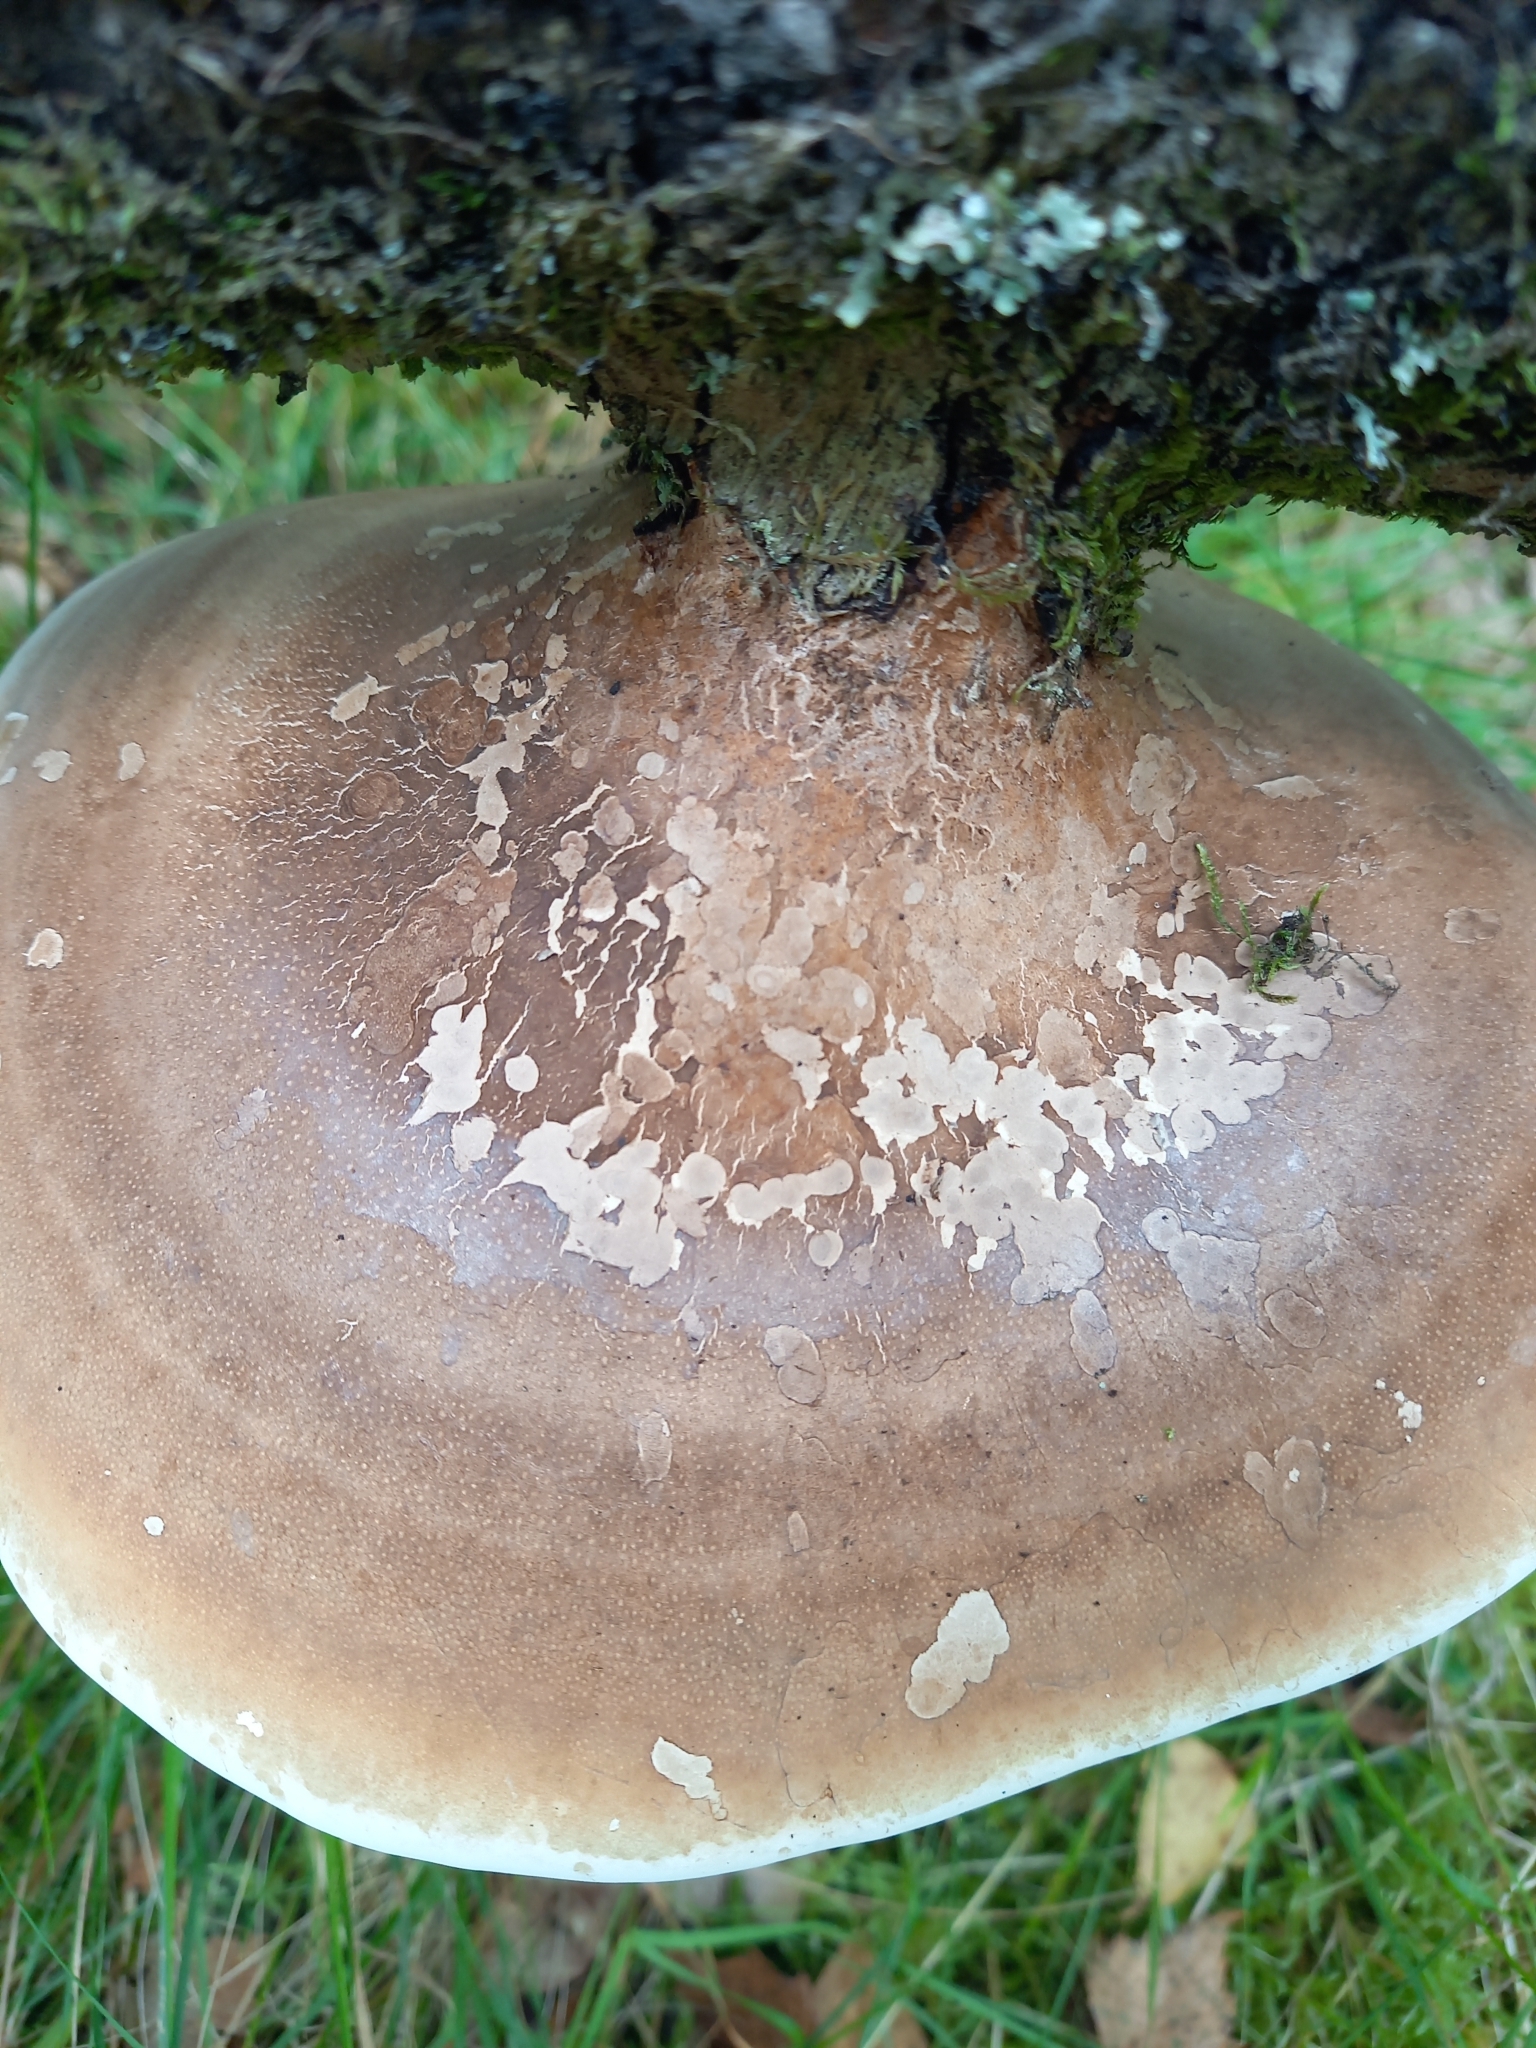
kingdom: Fungi
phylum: Basidiomycota
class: Agaricomycetes
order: Polyporales
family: Fomitopsidaceae
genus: Fomitopsis
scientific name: Fomitopsis betulina
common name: Birch polypore
